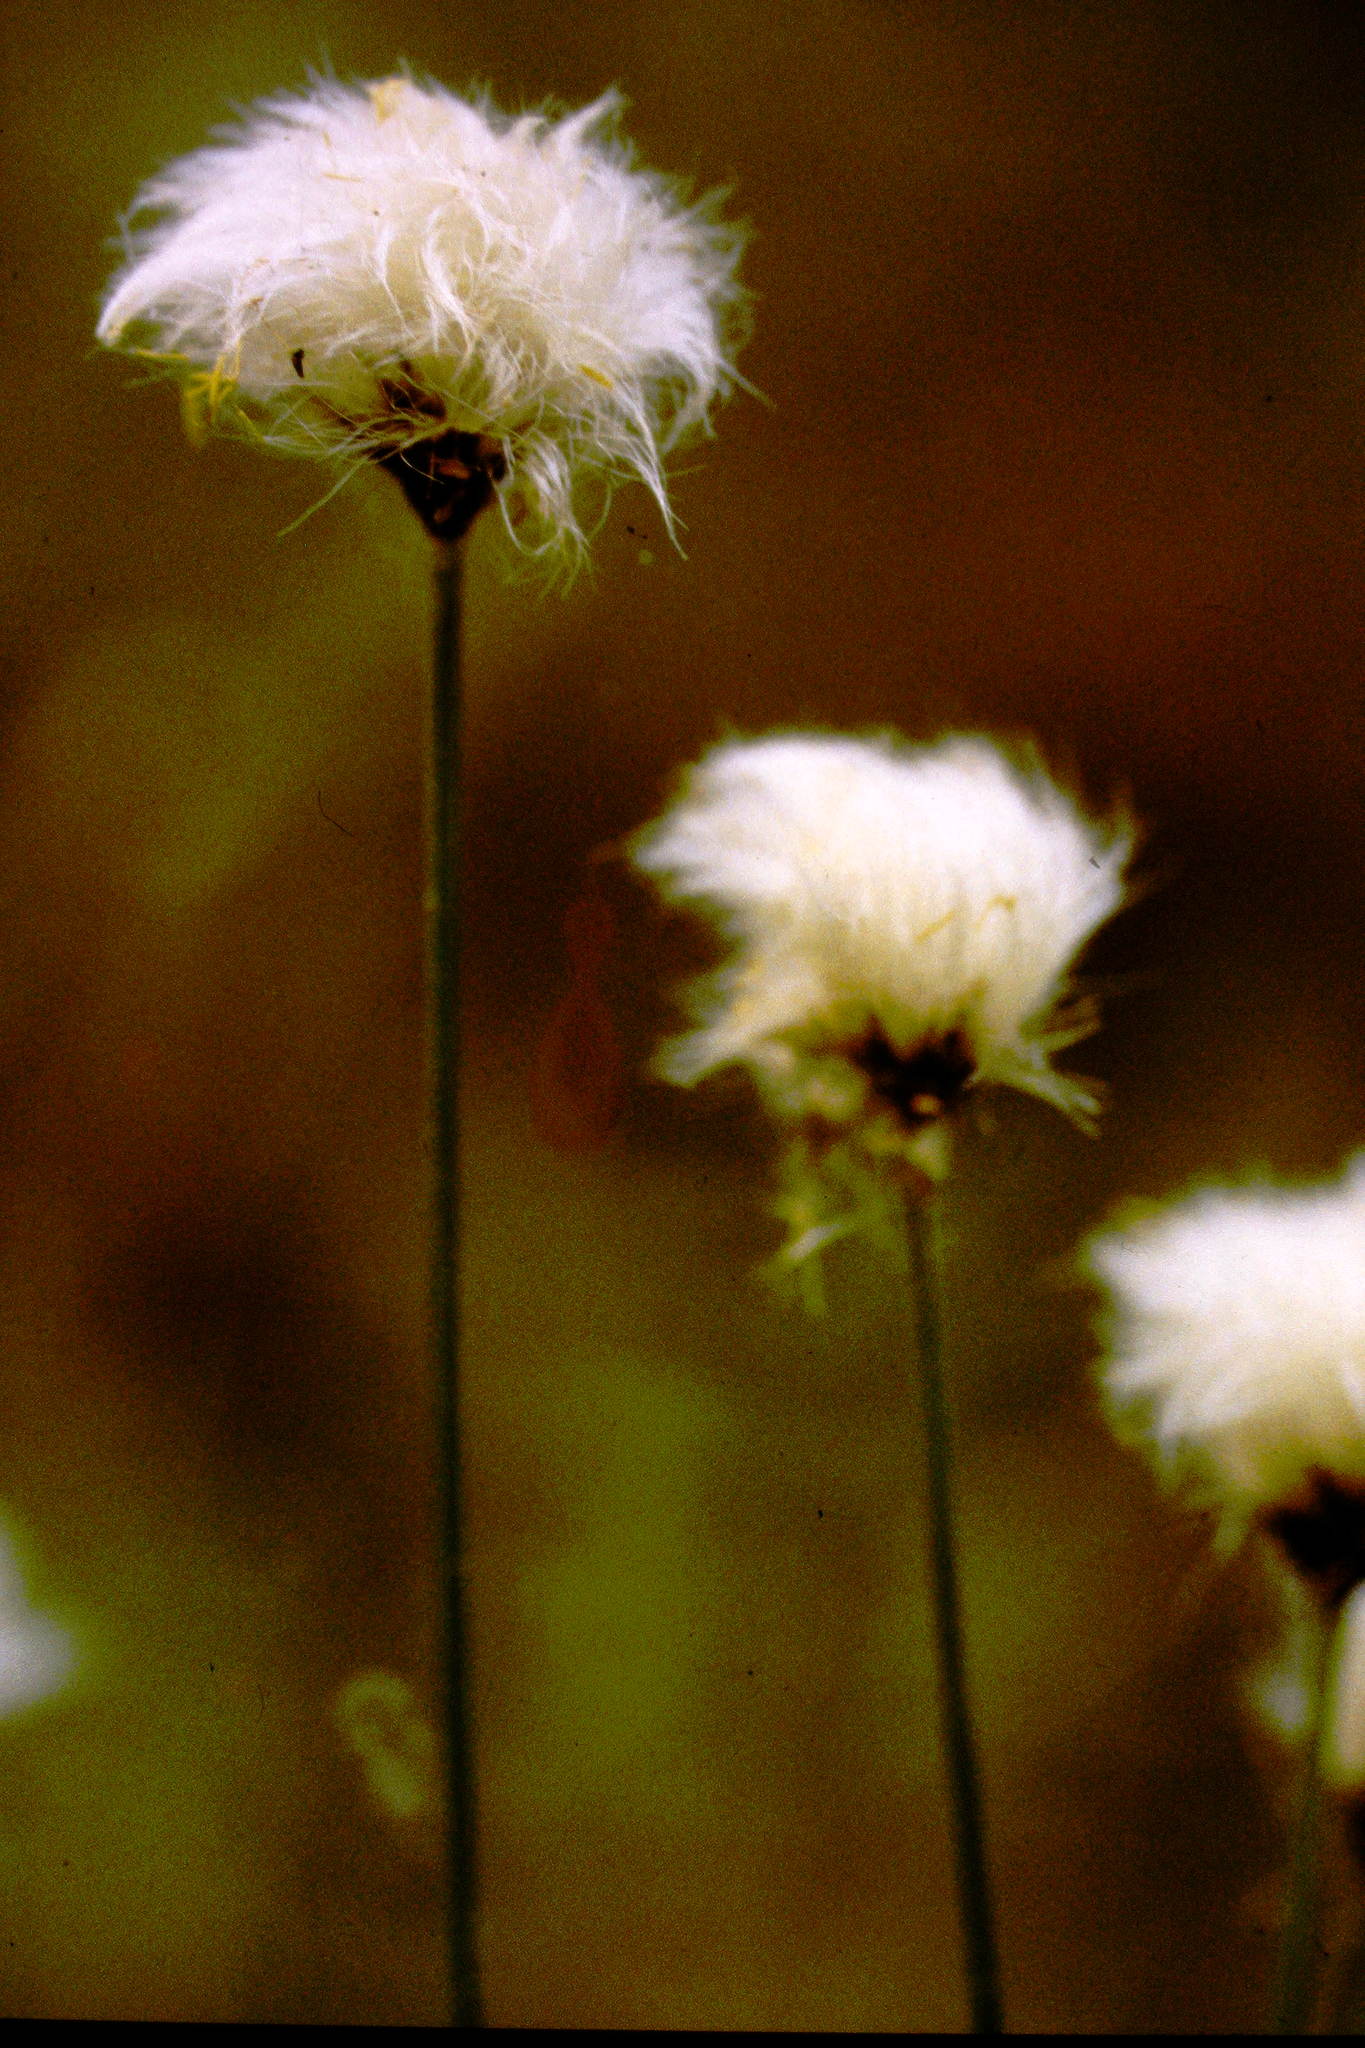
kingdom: Plantae
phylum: Tracheophyta
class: Liliopsida
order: Poales
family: Cyperaceae
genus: Eriophorum
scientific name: Eriophorum vaginatum
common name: Hare's-tail cottongrass
